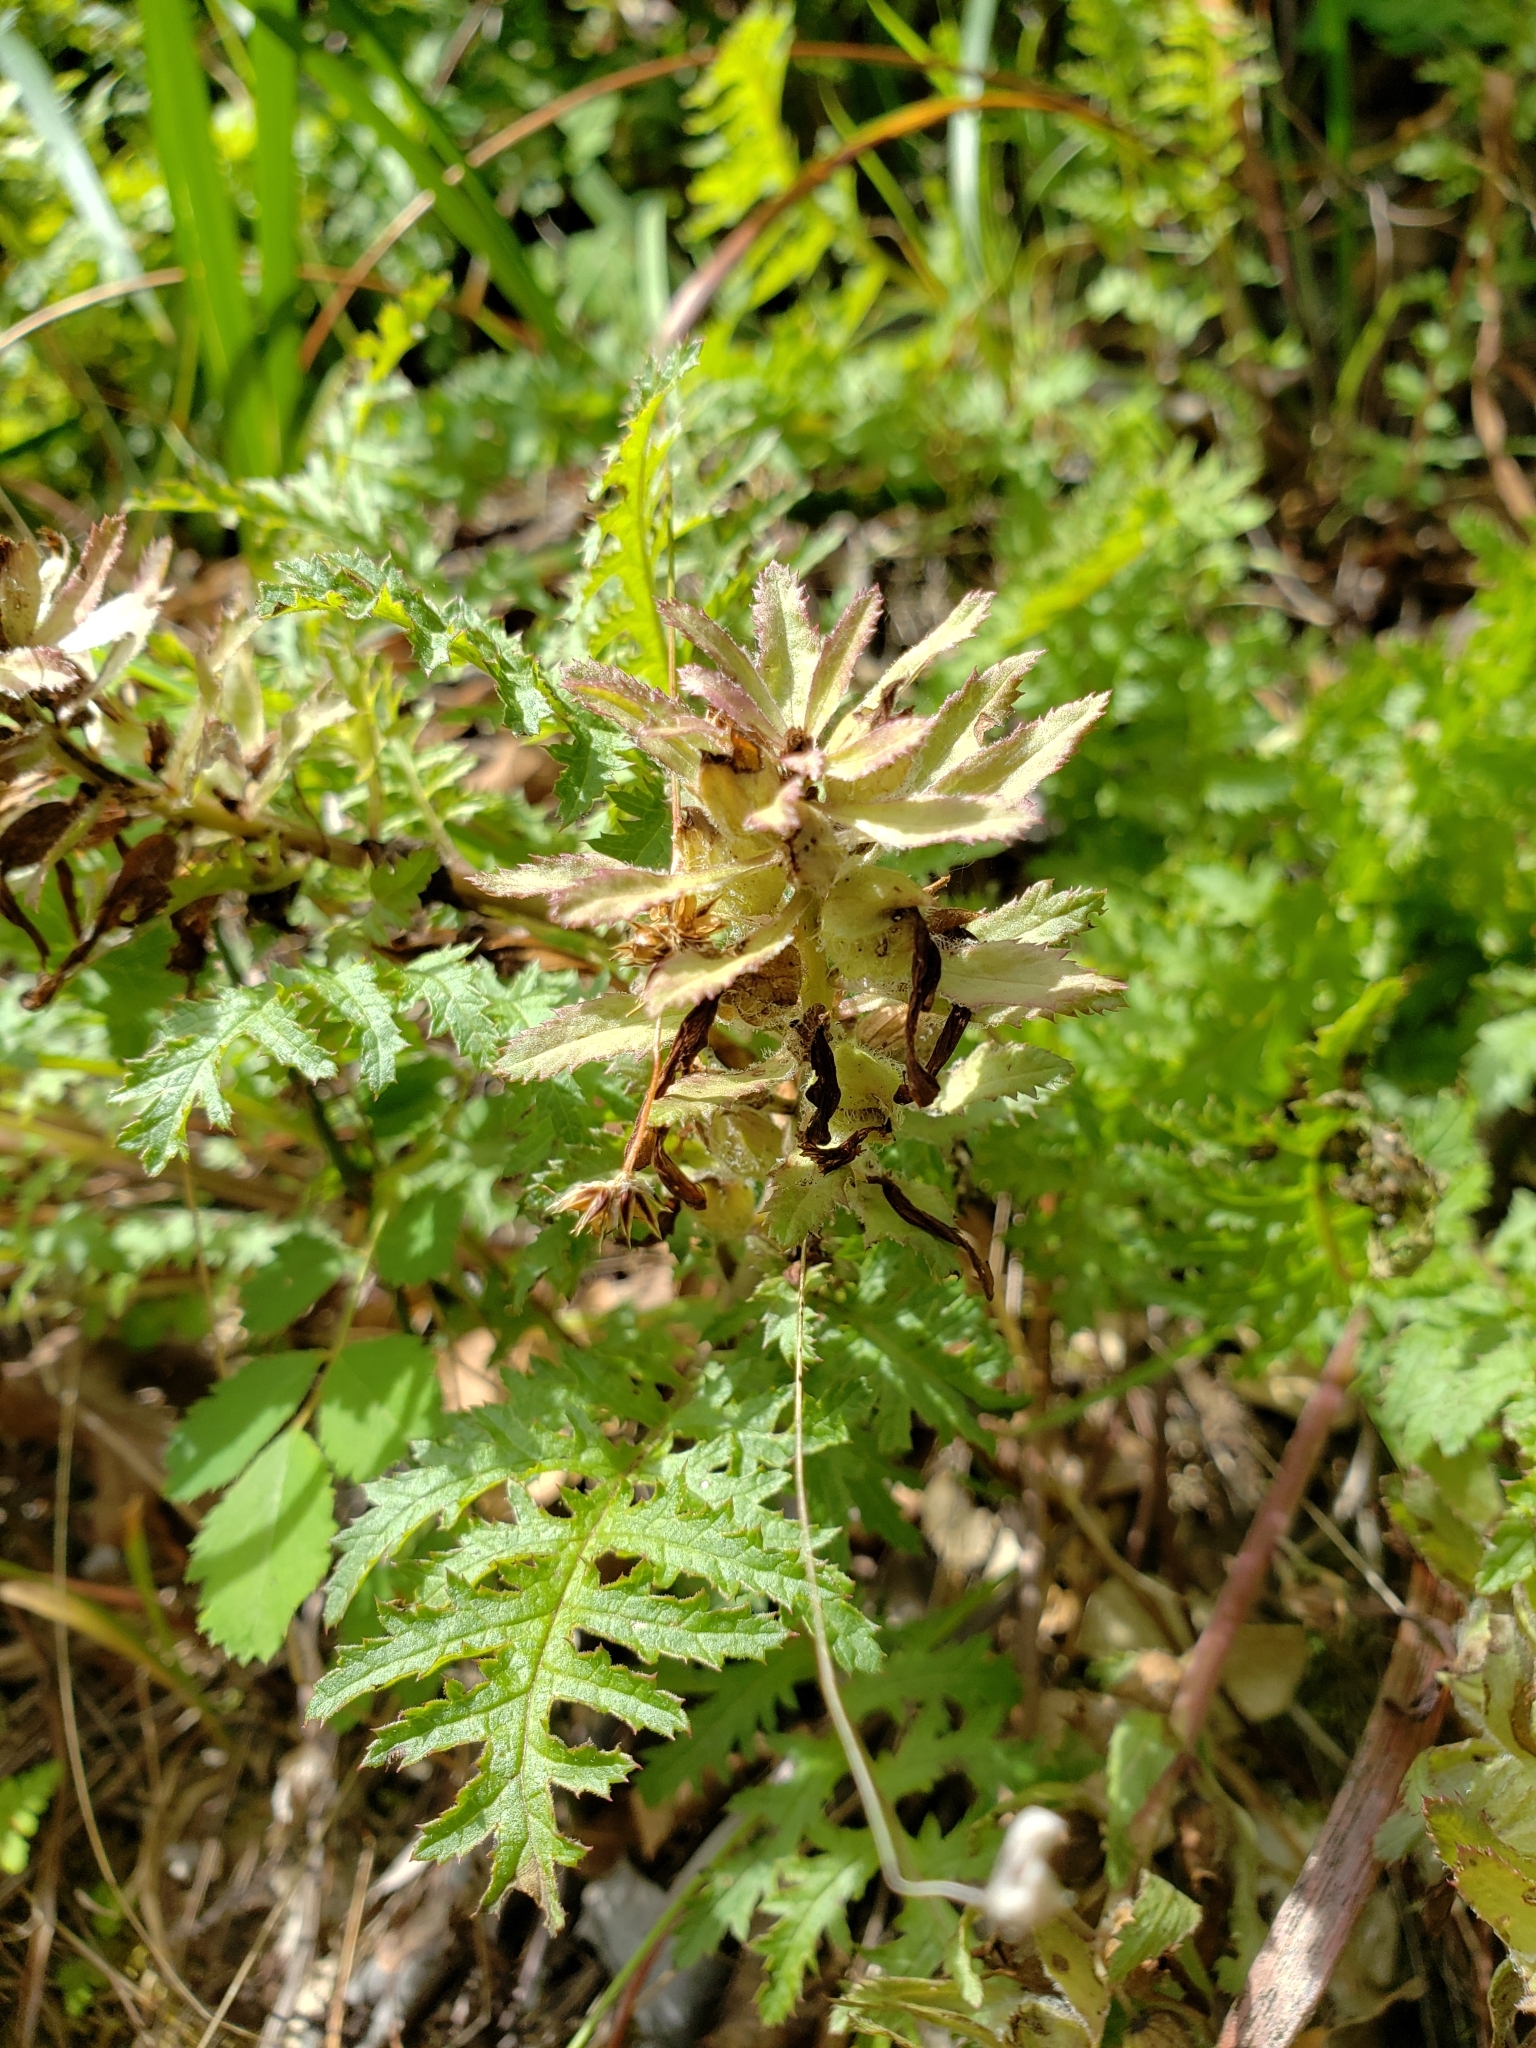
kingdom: Plantae
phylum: Tracheophyta
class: Magnoliopsida
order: Lamiales
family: Orobanchaceae
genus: Pedicularis
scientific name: Pedicularis densiflora
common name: Indian warrior
